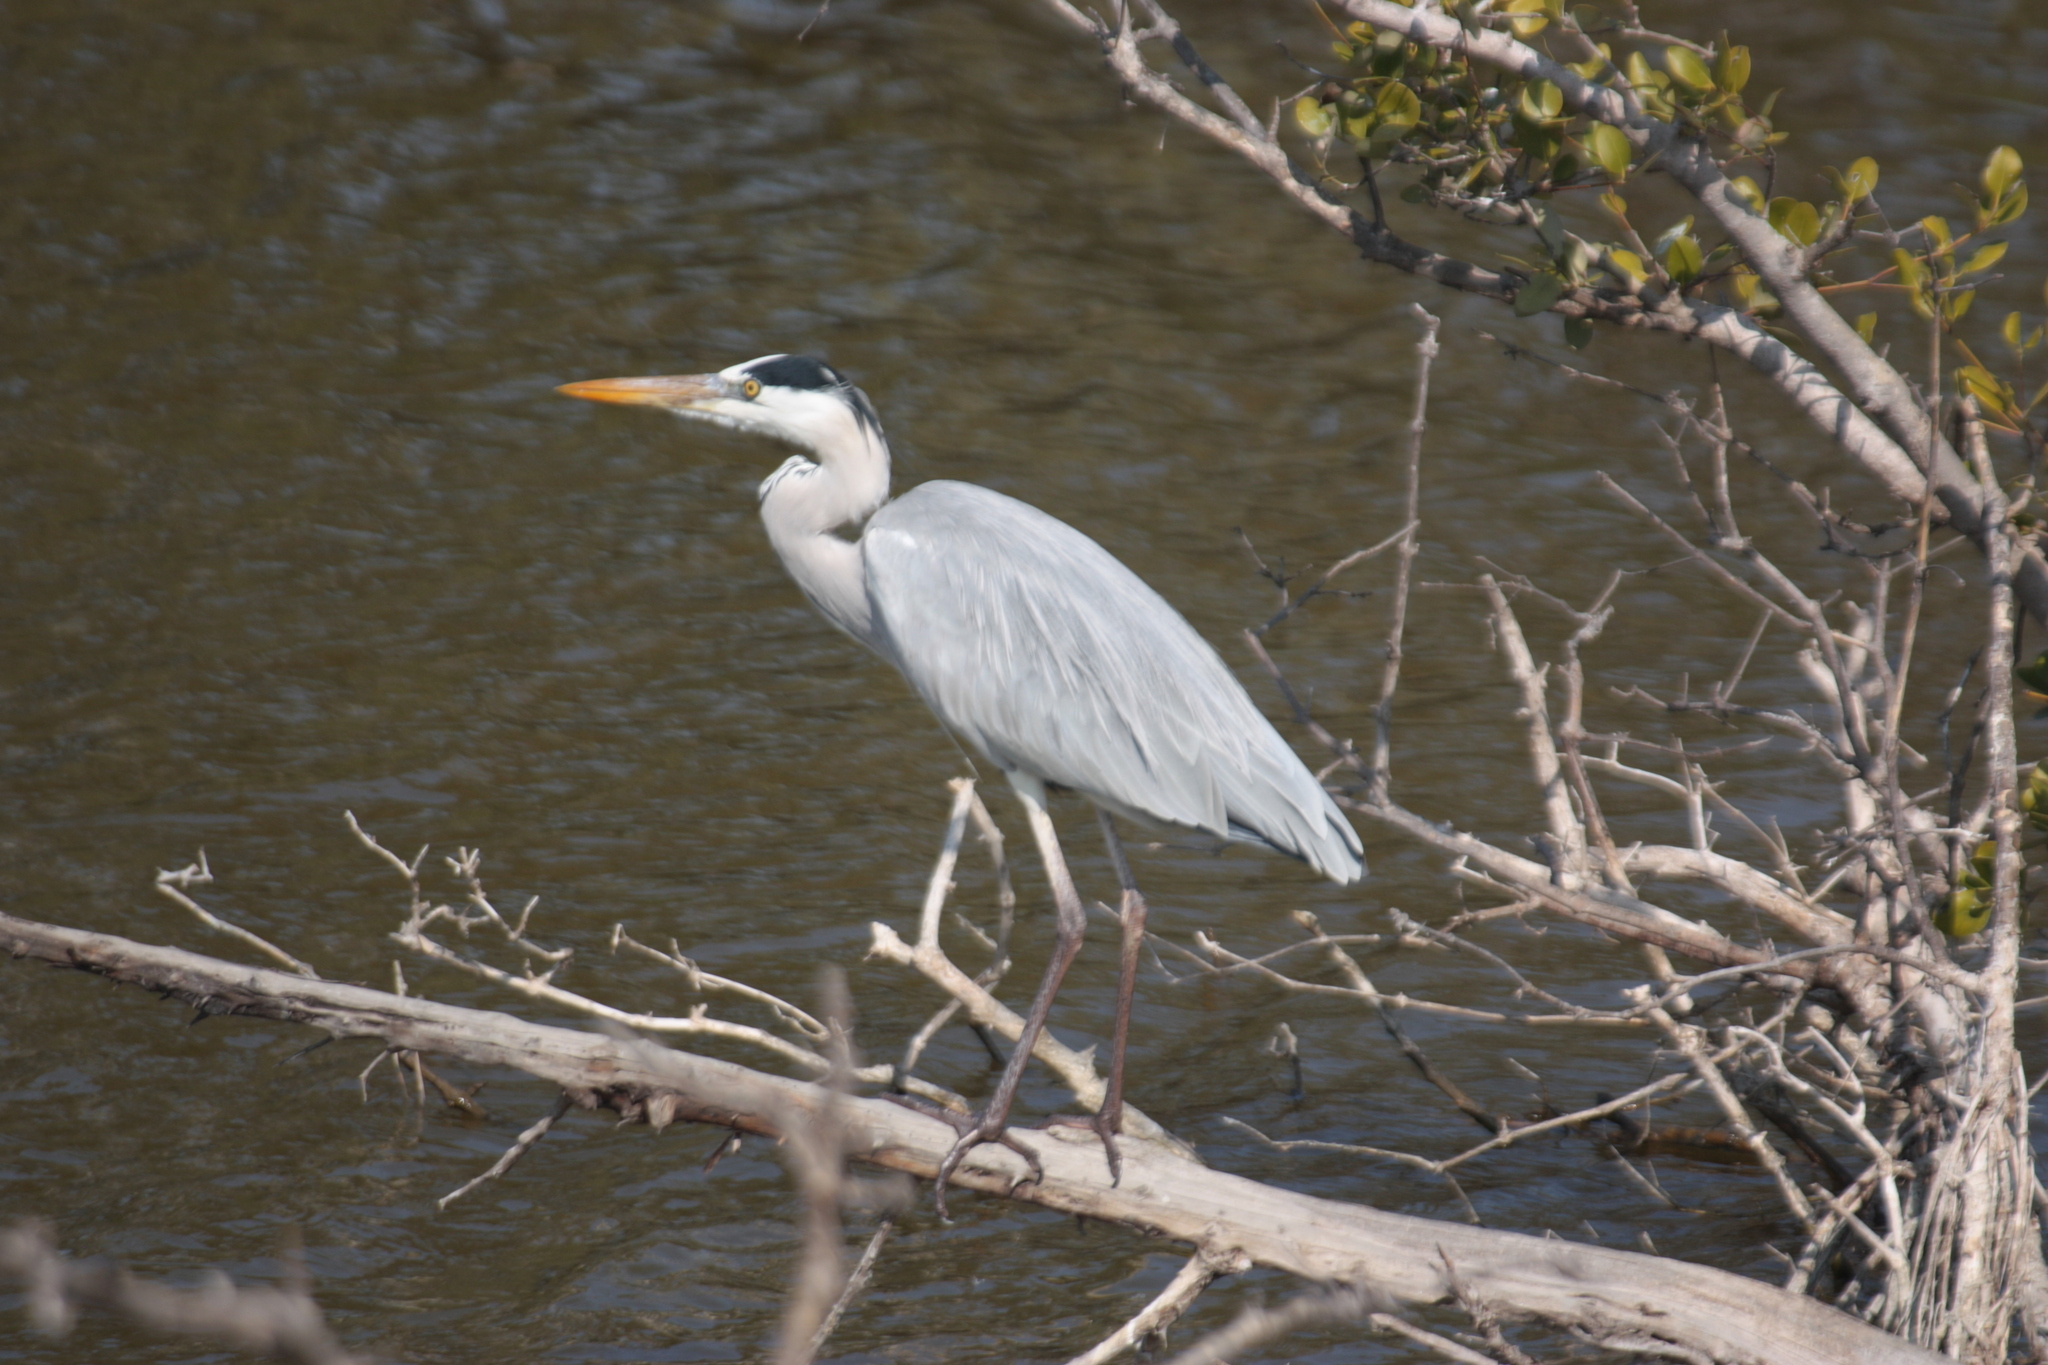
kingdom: Animalia
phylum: Chordata
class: Aves
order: Pelecaniformes
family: Ardeidae
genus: Ardea
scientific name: Ardea cinerea
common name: Grey heron
